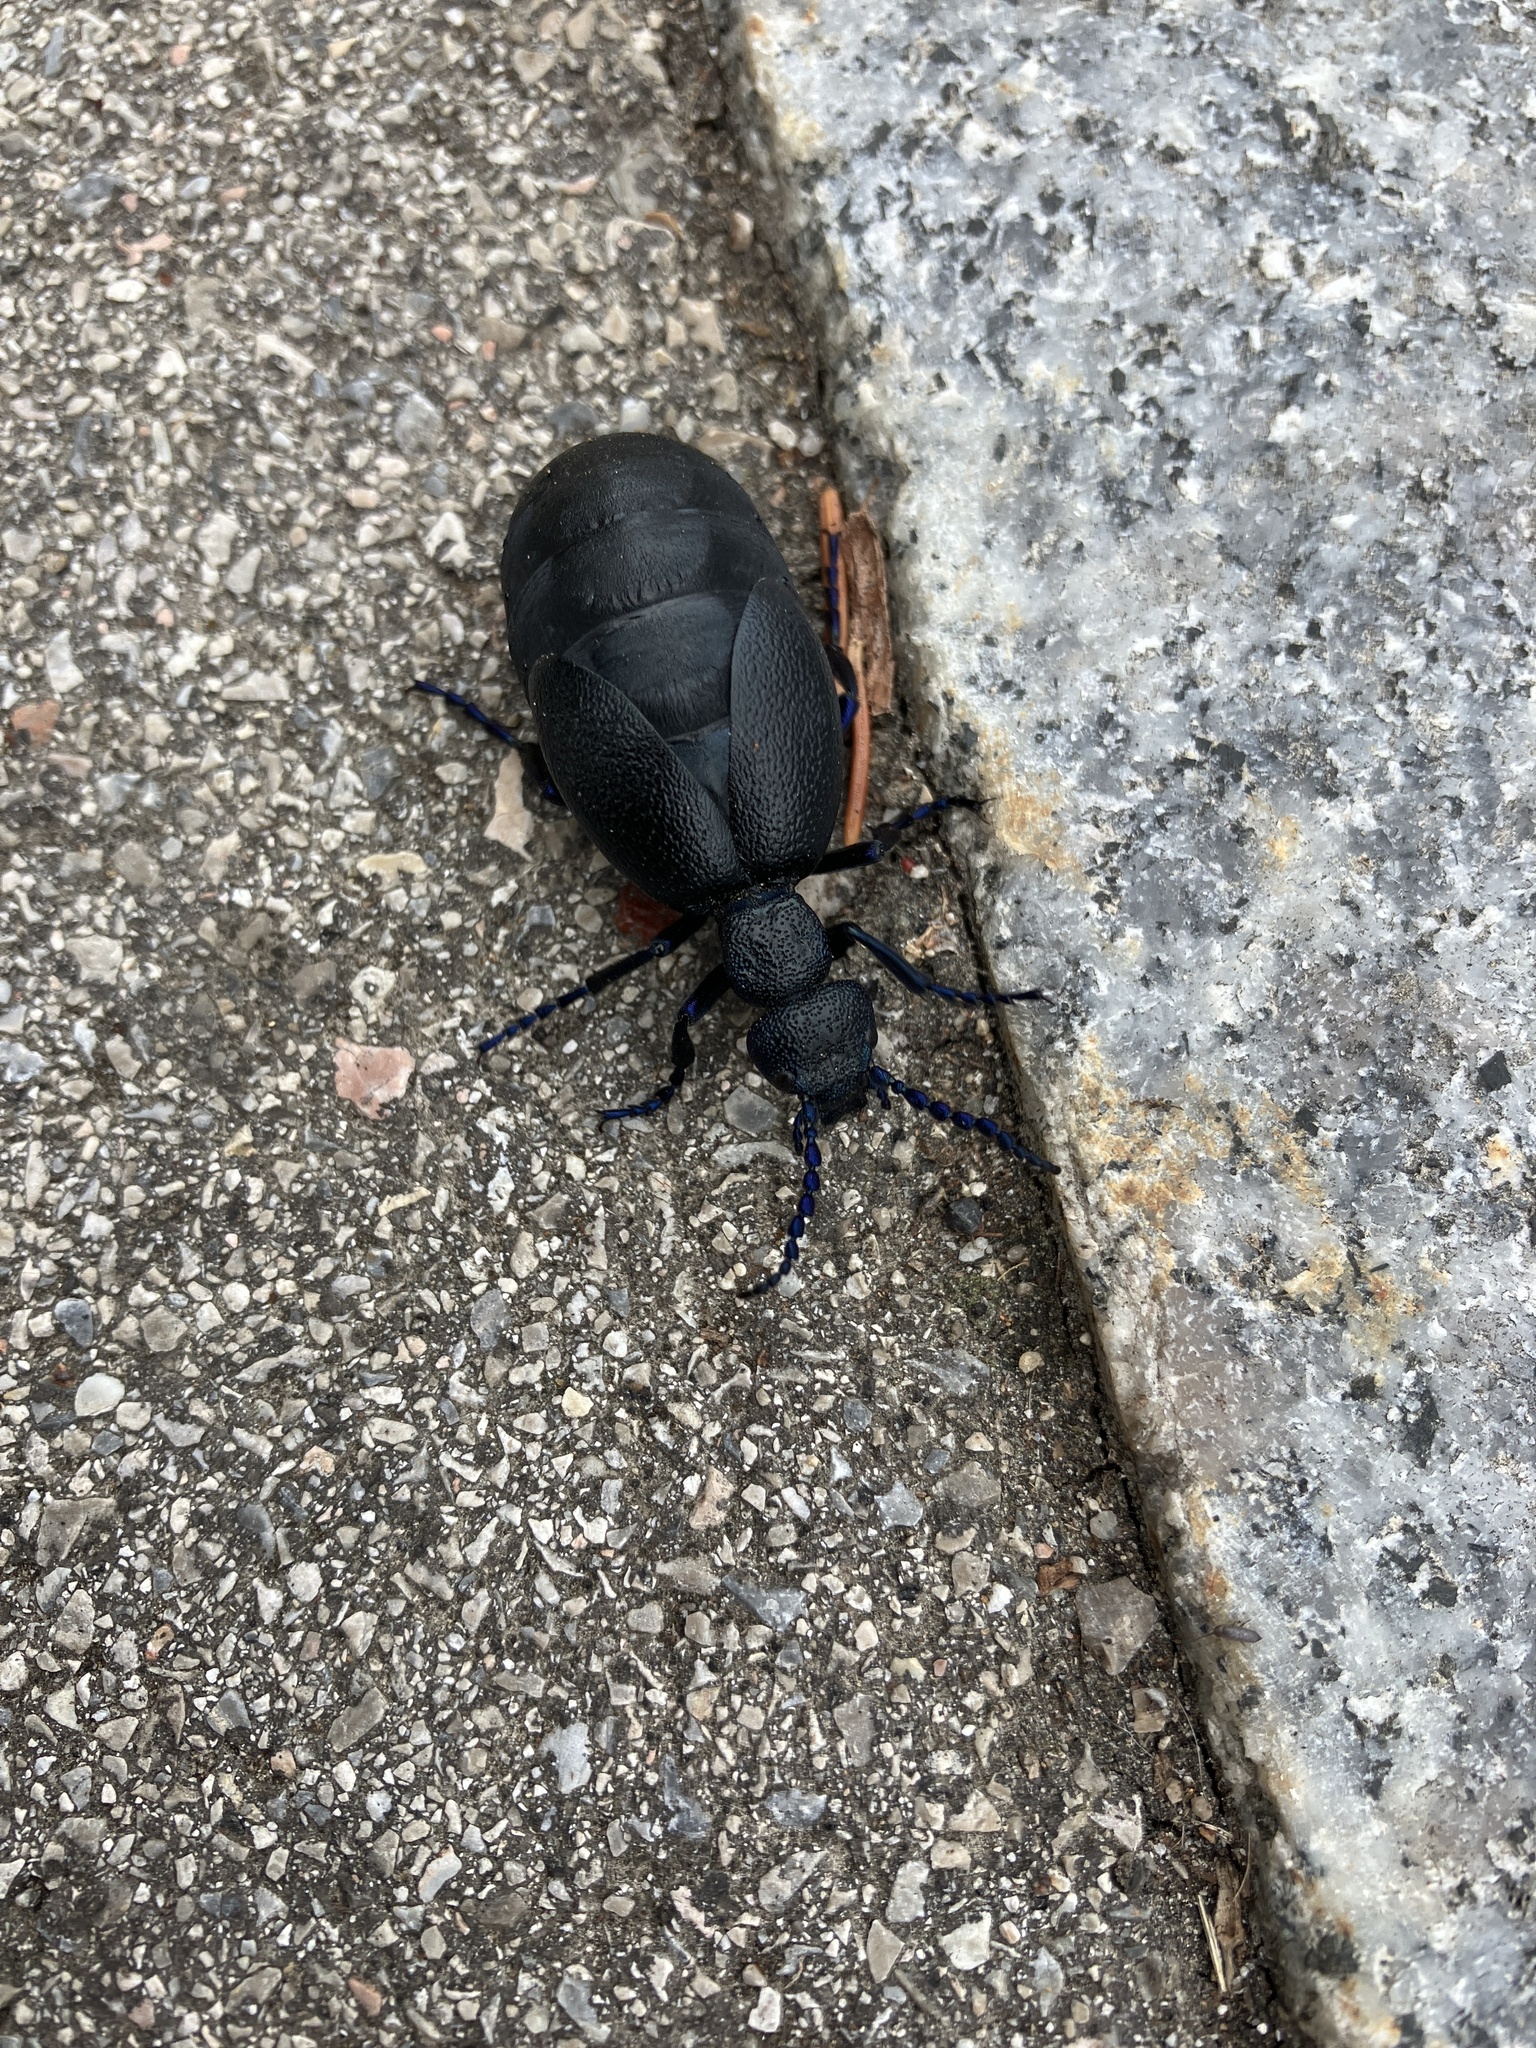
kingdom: Animalia
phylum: Arthropoda
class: Insecta
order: Coleoptera
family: Meloidae
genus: Meloe
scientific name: Meloe proscarabaeus
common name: Black oil-beetle
